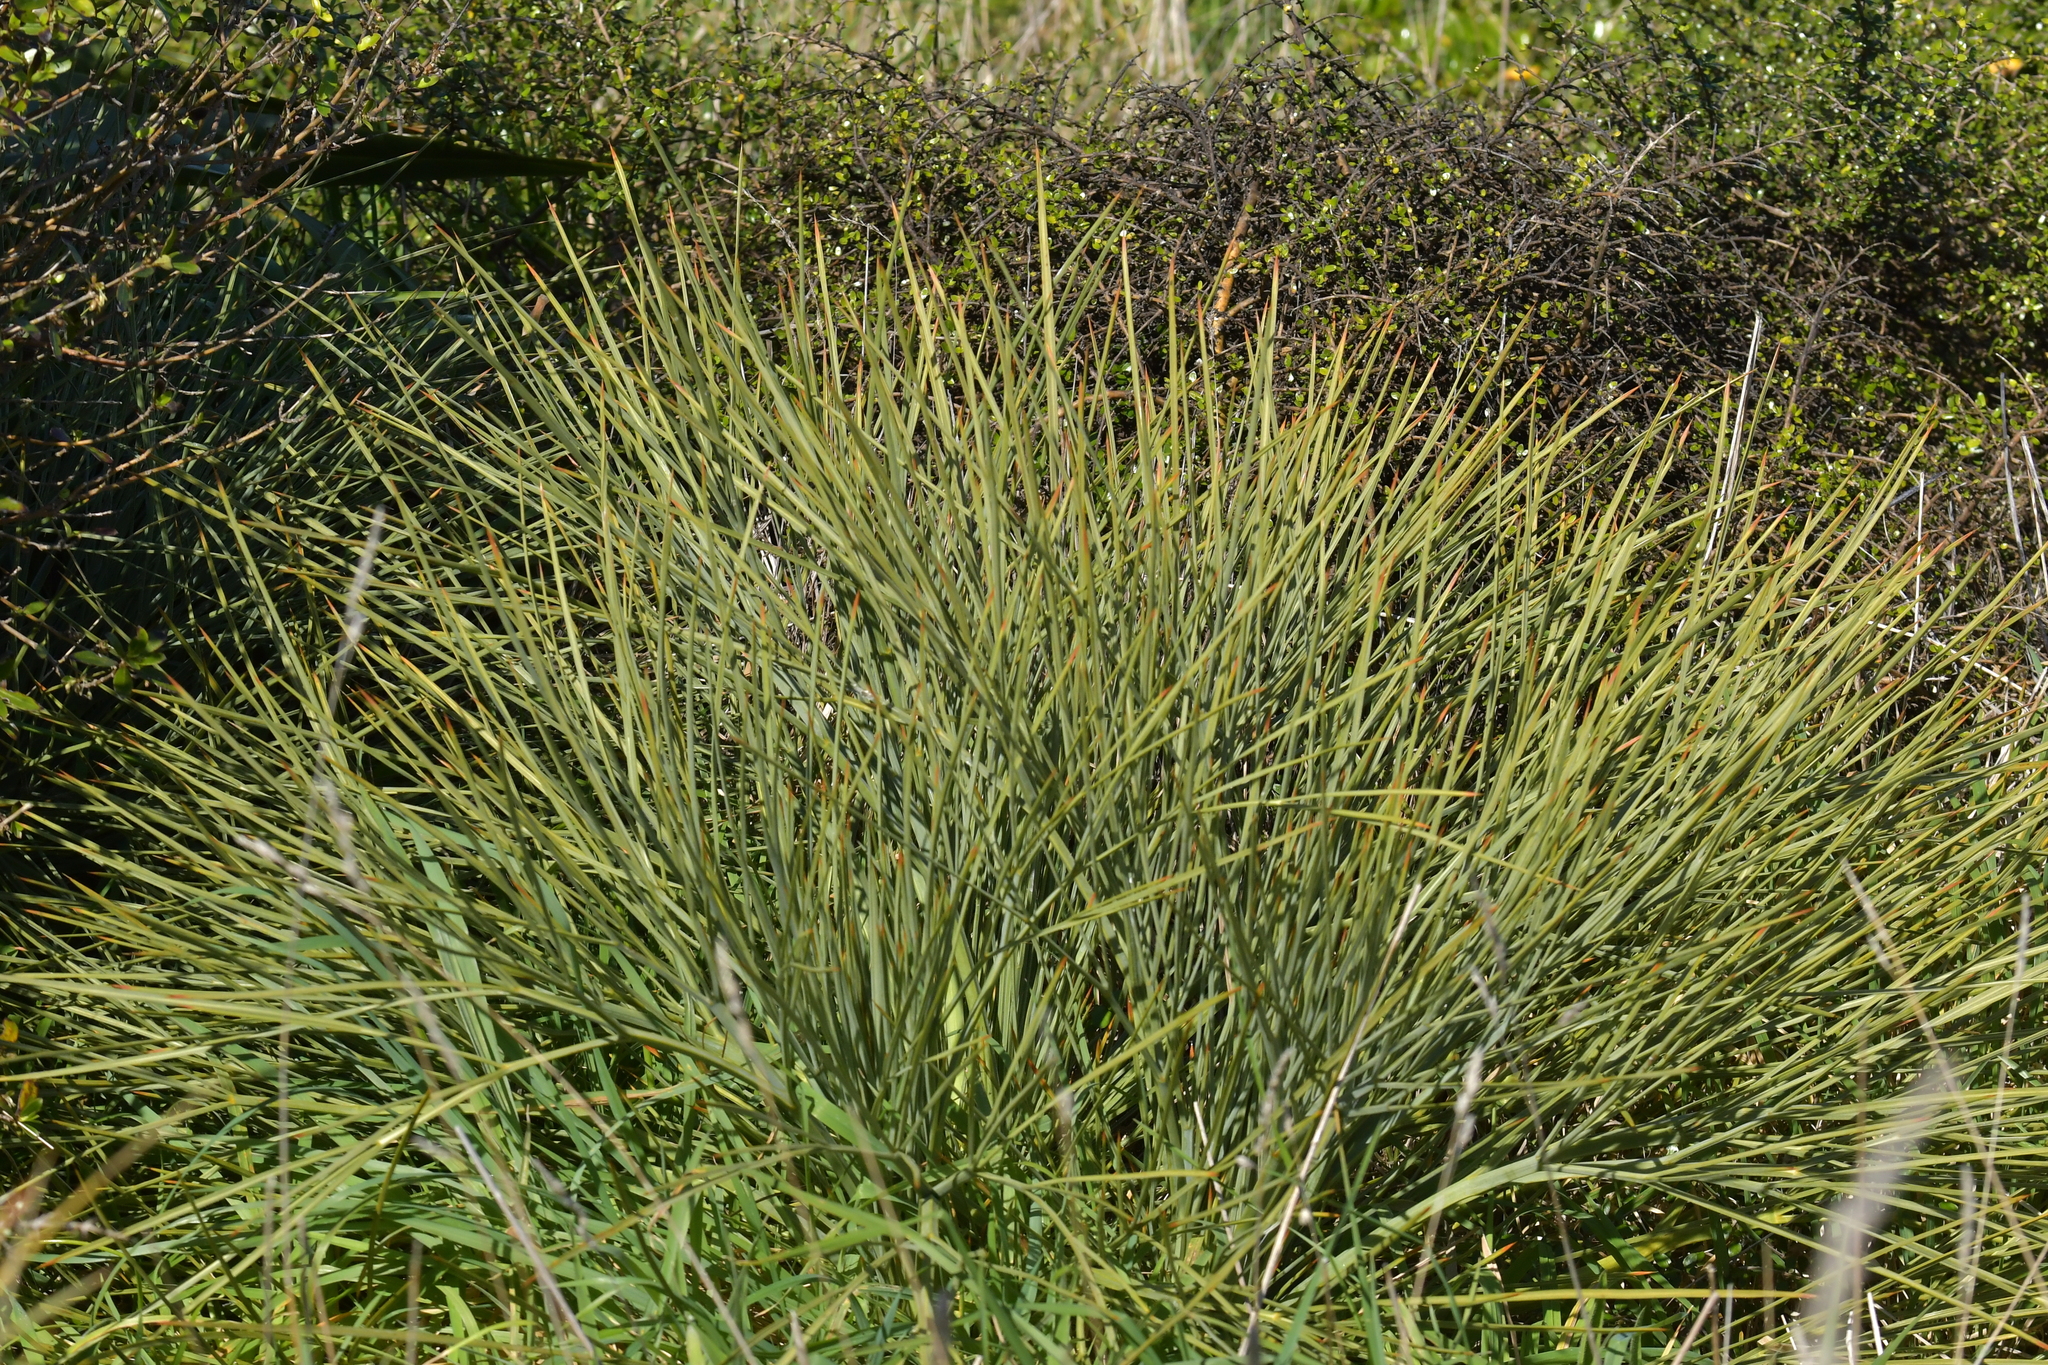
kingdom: Plantae
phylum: Tracheophyta
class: Magnoliopsida
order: Apiales
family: Apiaceae
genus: Aciphylla
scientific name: Aciphylla squarrosa
